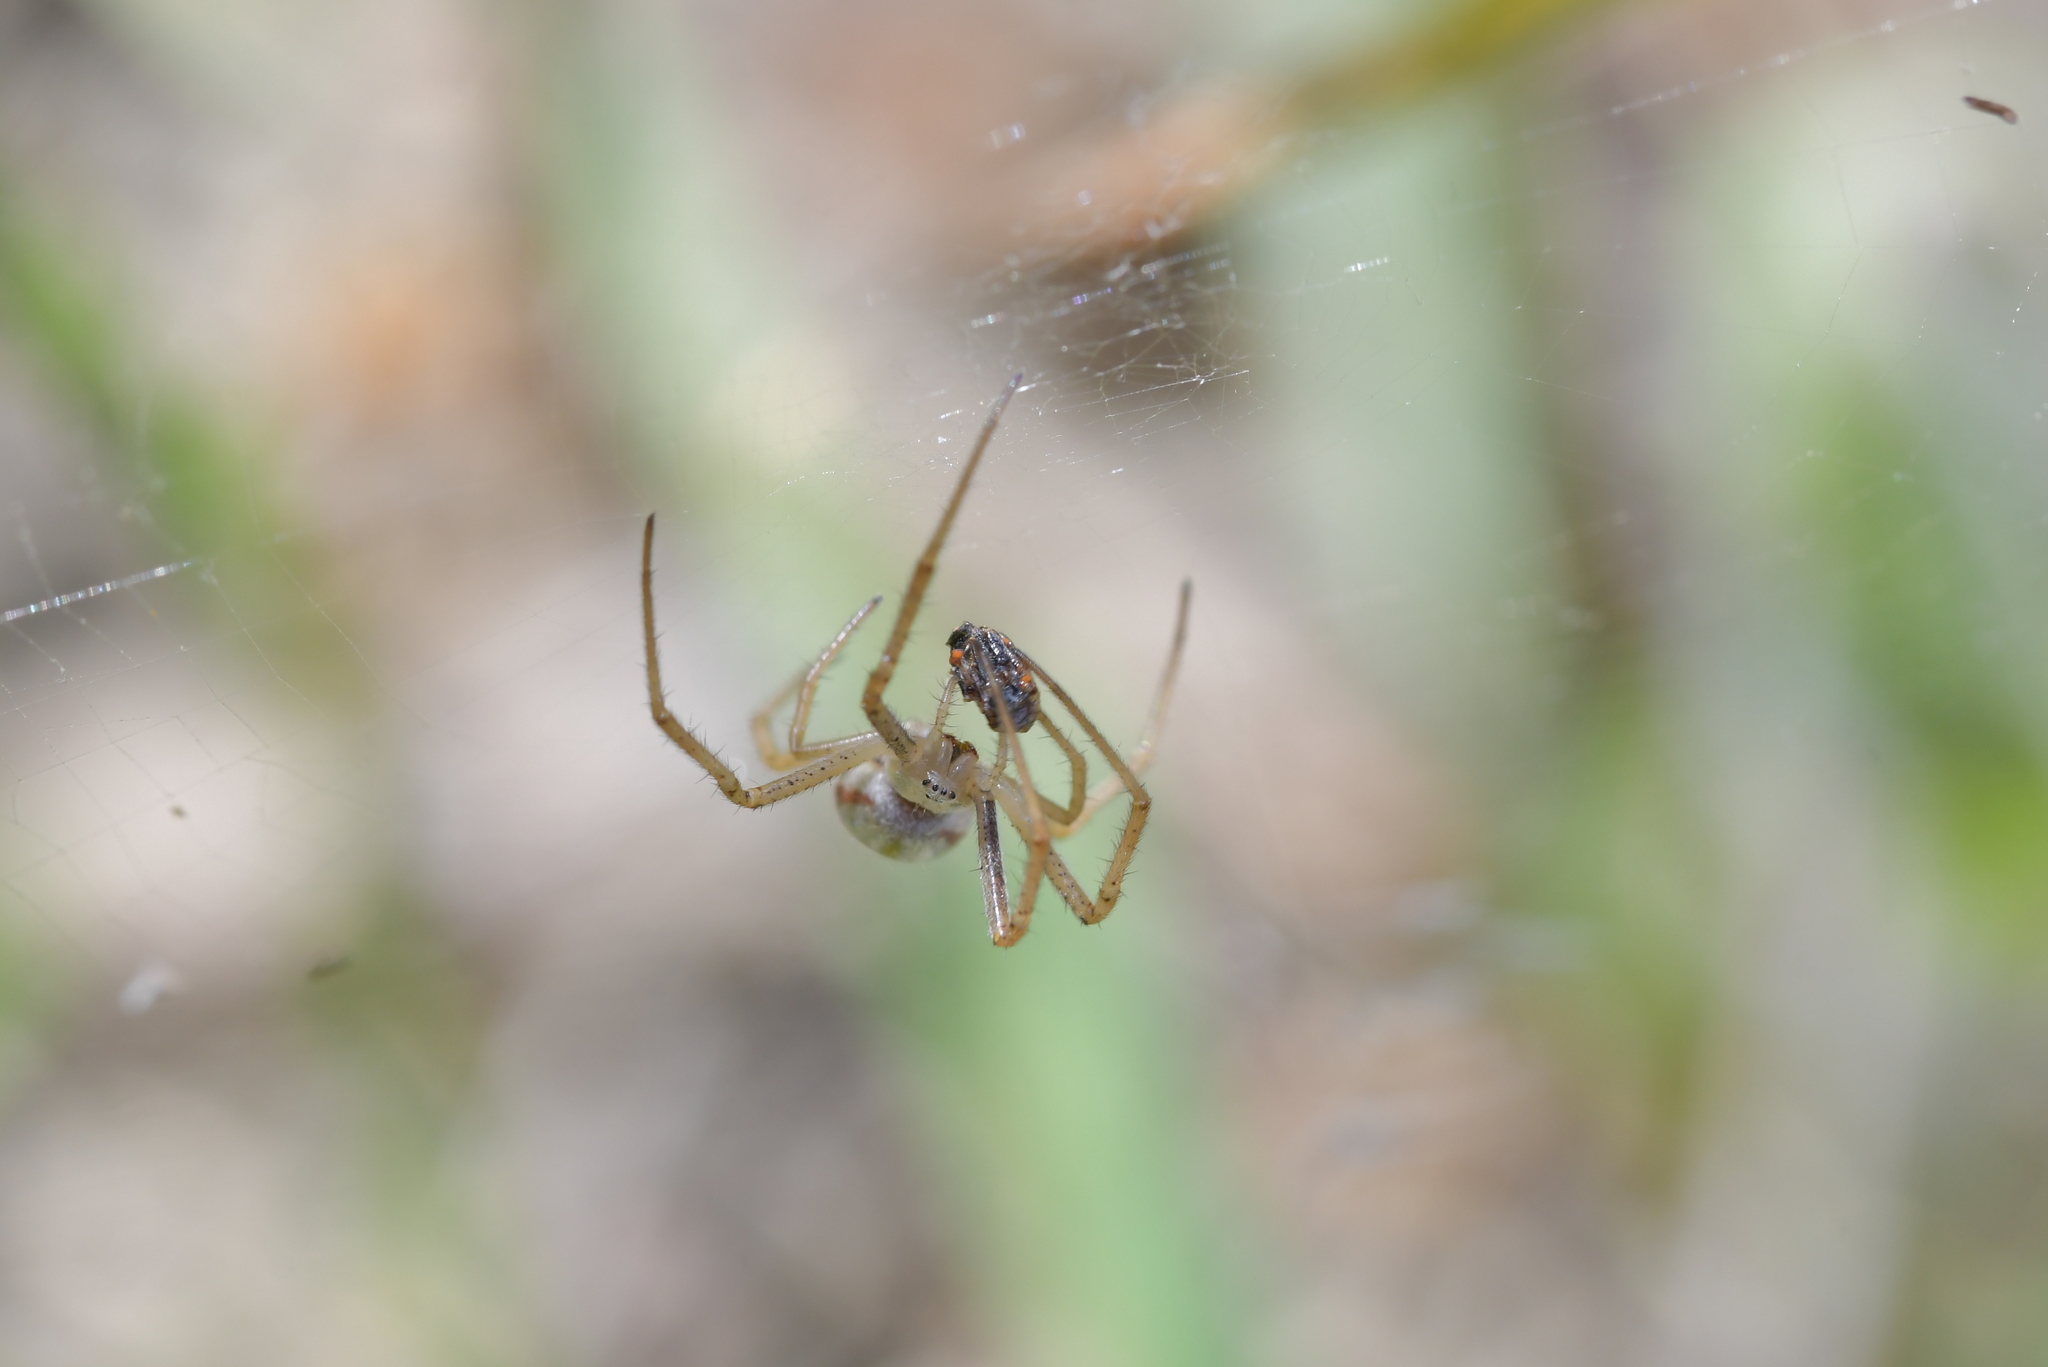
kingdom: Animalia
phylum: Arthropoda
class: Arachnida
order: Araneae
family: Araneidae
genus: Argiope
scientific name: Argiope protensa
